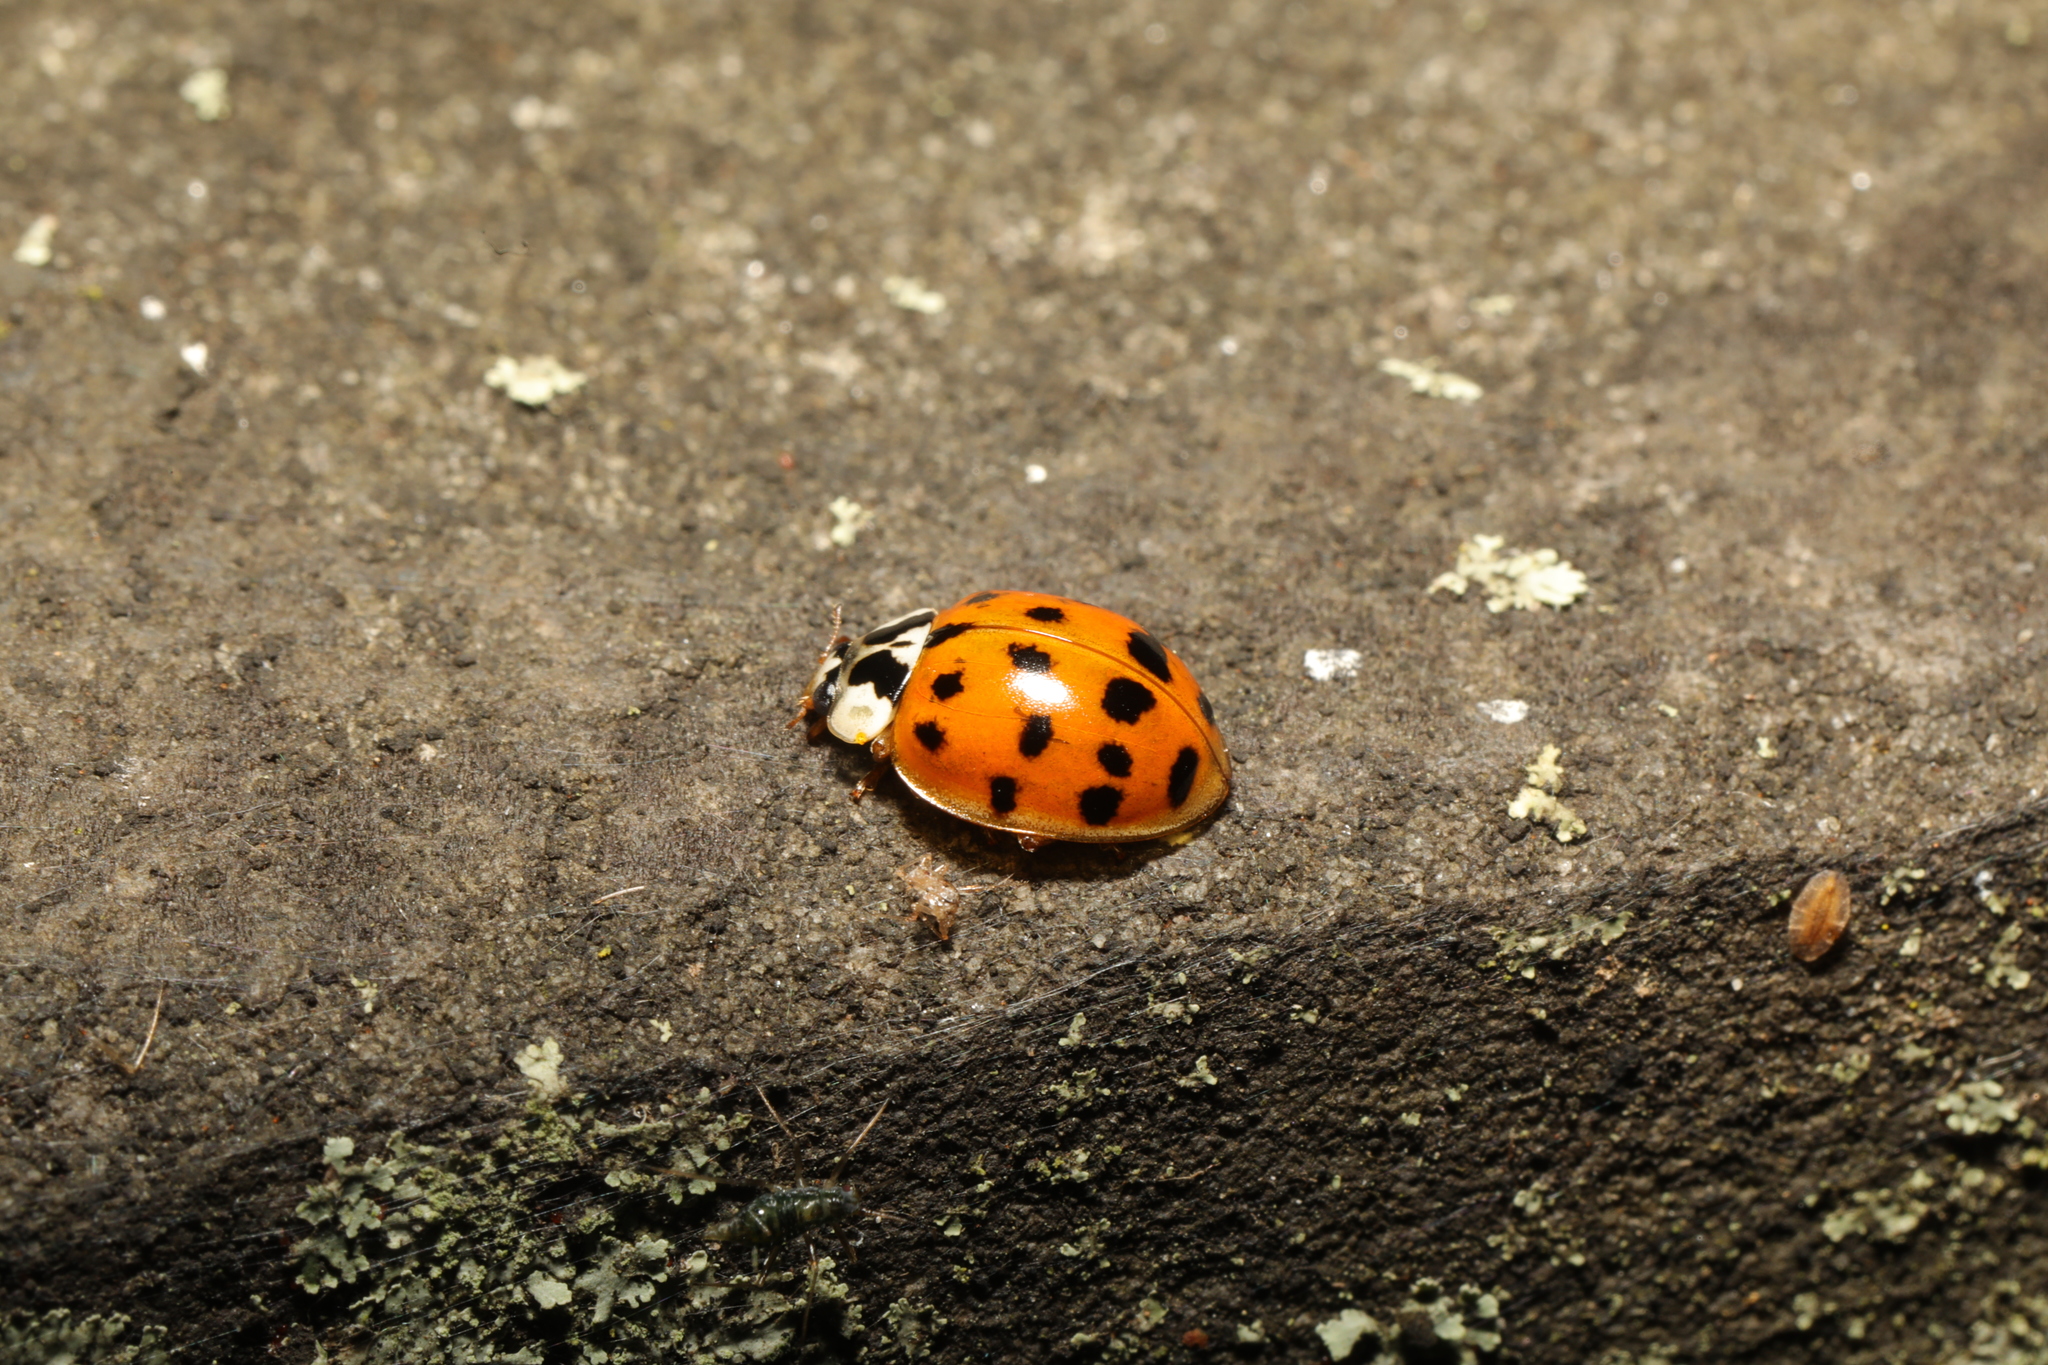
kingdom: Animalia
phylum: Arthropoda
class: Insecta
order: Coleoptera
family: Coccinellidae
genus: Harmonia
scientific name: Harmonia axyridis
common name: Harlequin ladybird
